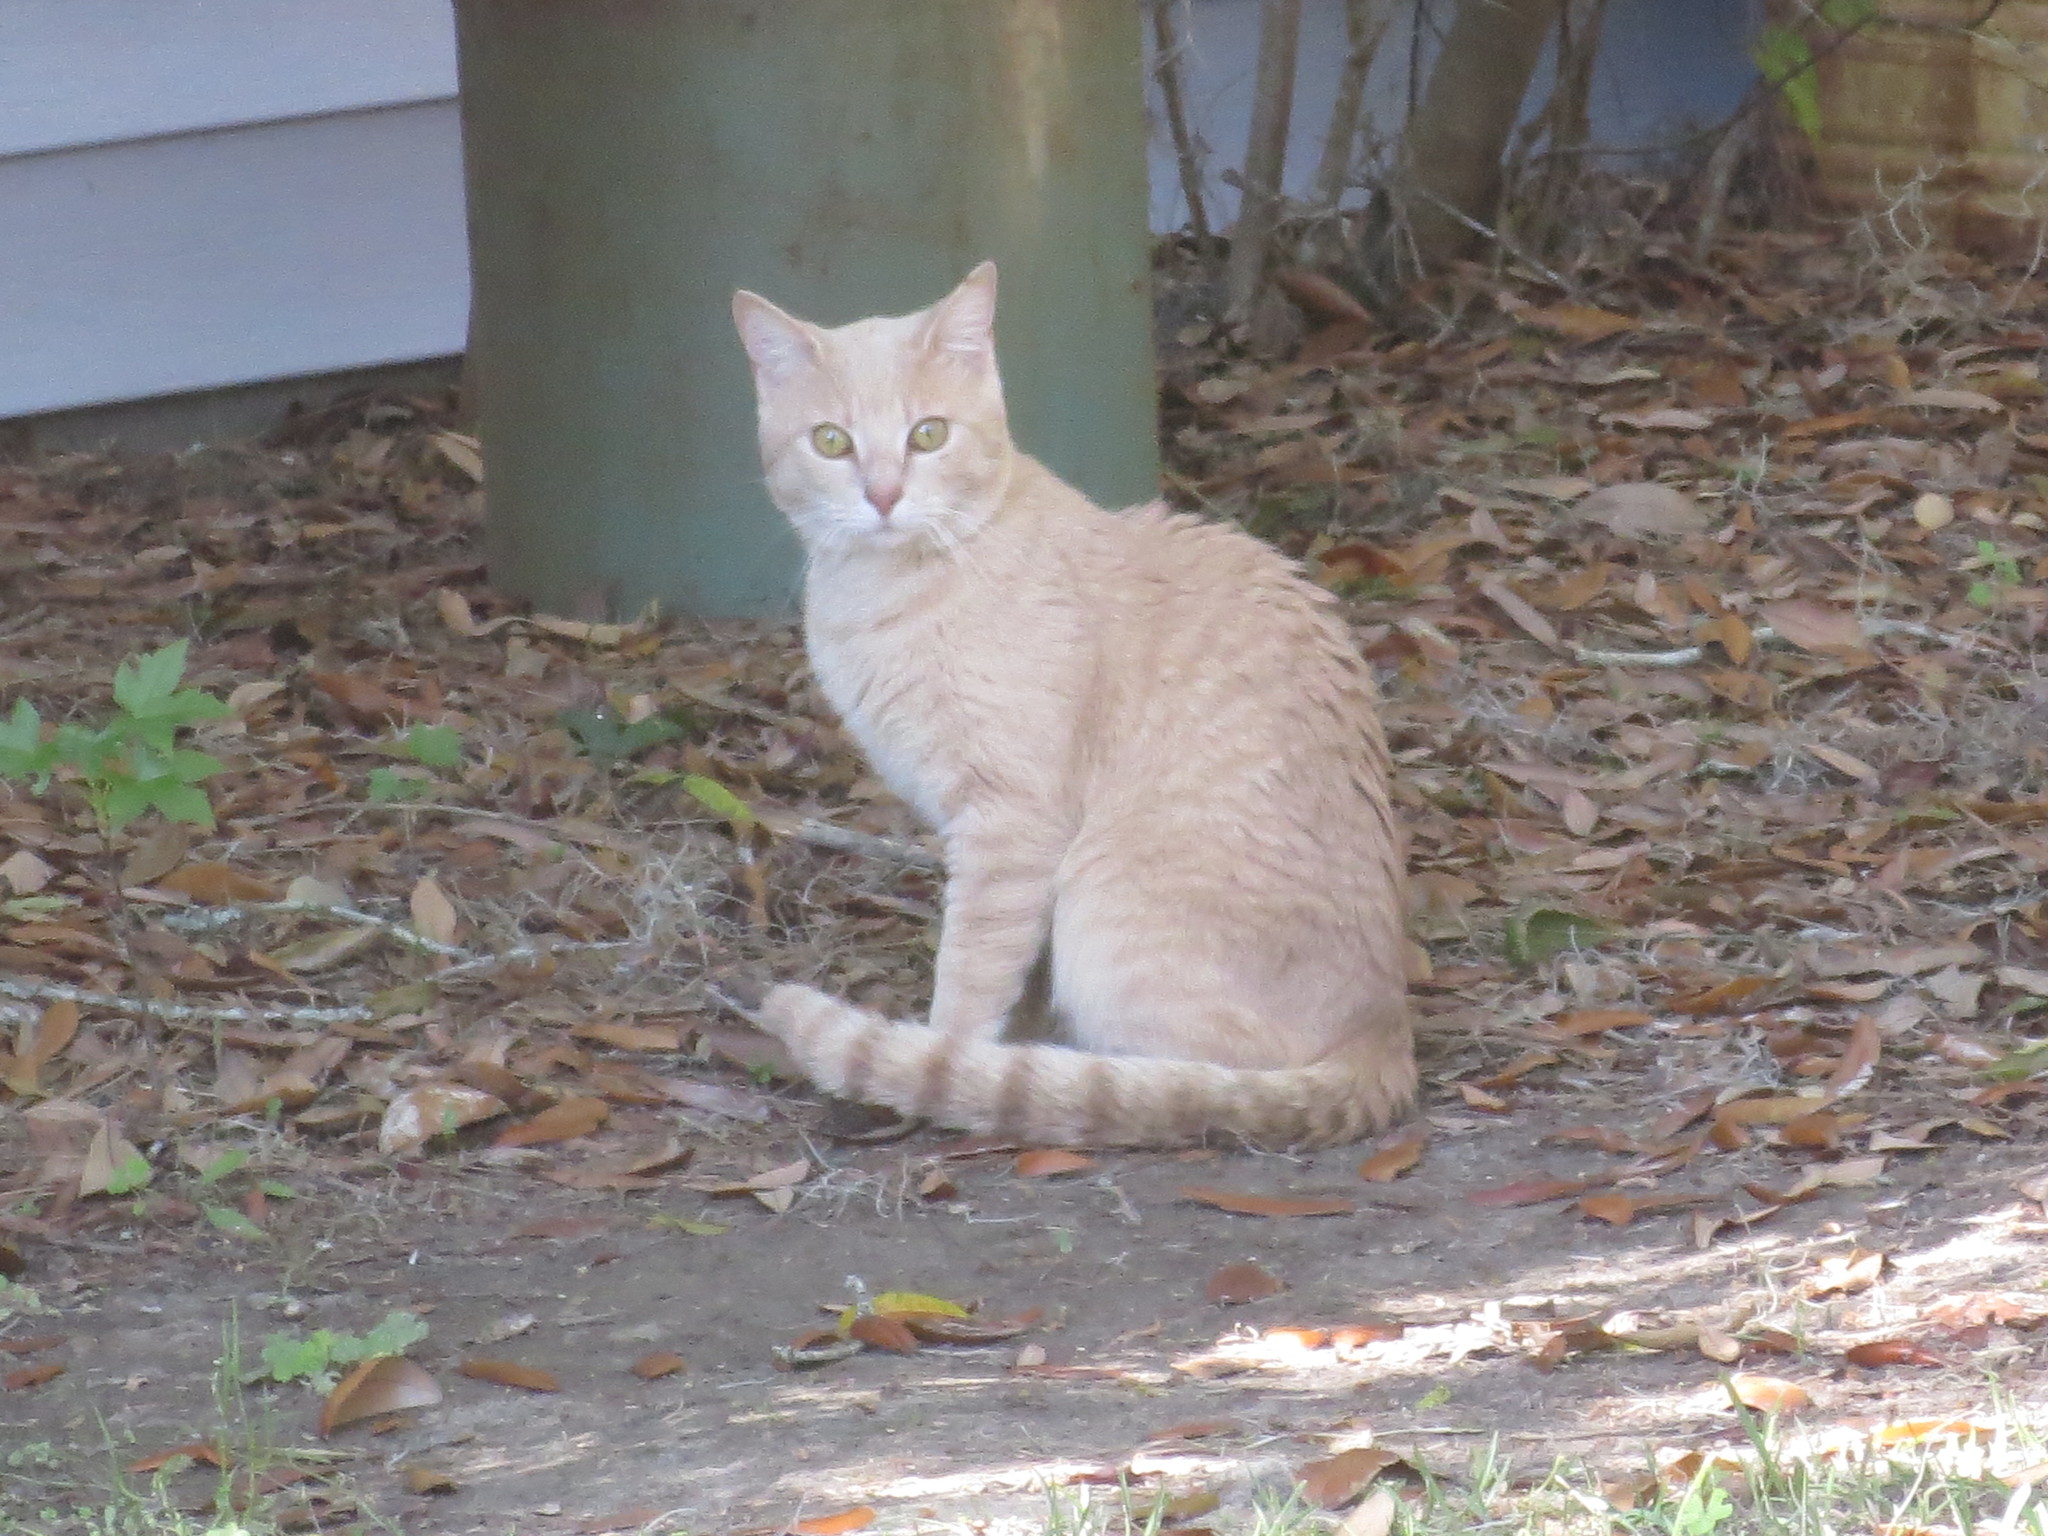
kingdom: Animalia
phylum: Chordata
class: Mammalia
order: Carnivora
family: Felidae
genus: Felis
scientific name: Felis catus
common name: Domestic cat
